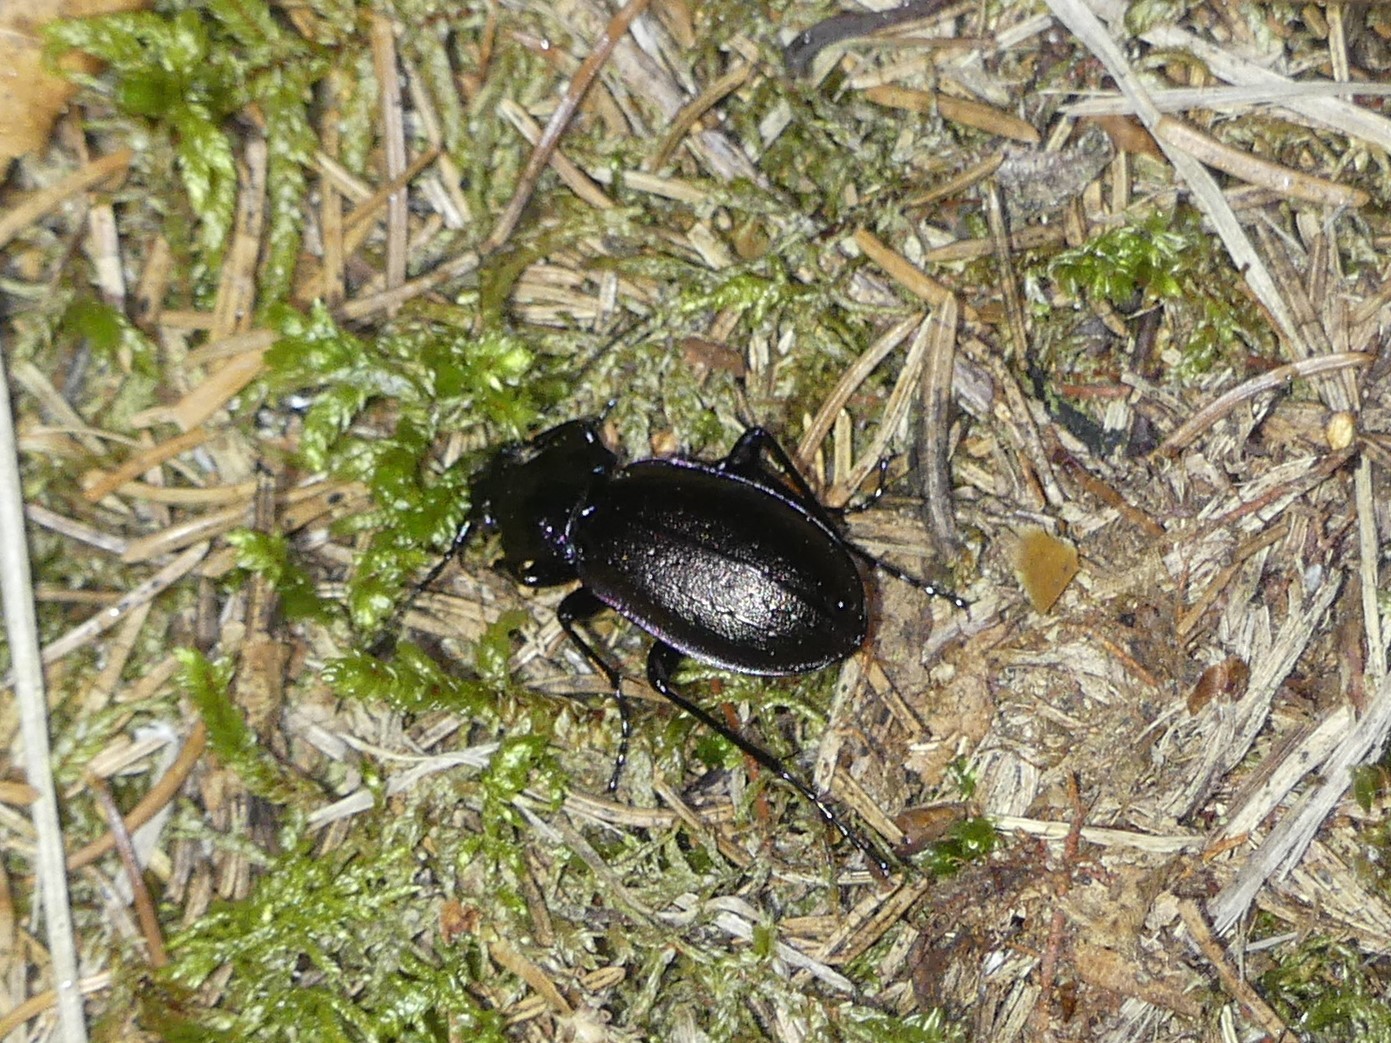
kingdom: Animalia
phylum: Arthropoda
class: Insecta
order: Coleoptera
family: Carabidae
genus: Carabus
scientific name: Carabus nemoralis
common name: European ground beetle
